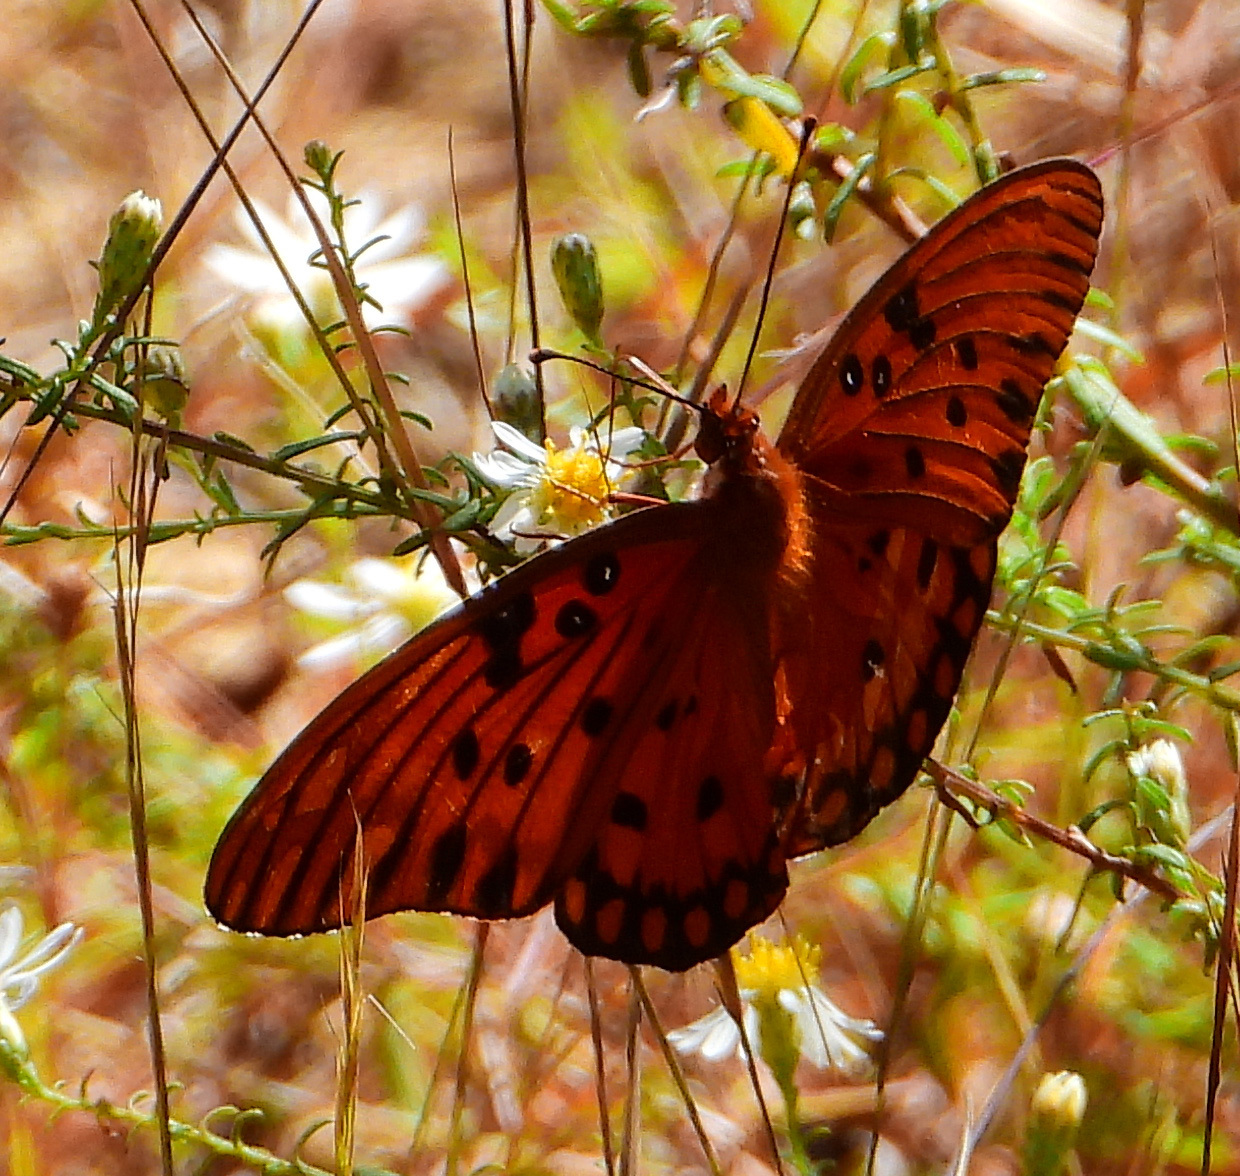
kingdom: Animalia
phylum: Arthropoda
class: Insecta
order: Lepidoptera
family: Nymphalidae
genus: Dione
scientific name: Dione vanillae
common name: Gulf fritillary
